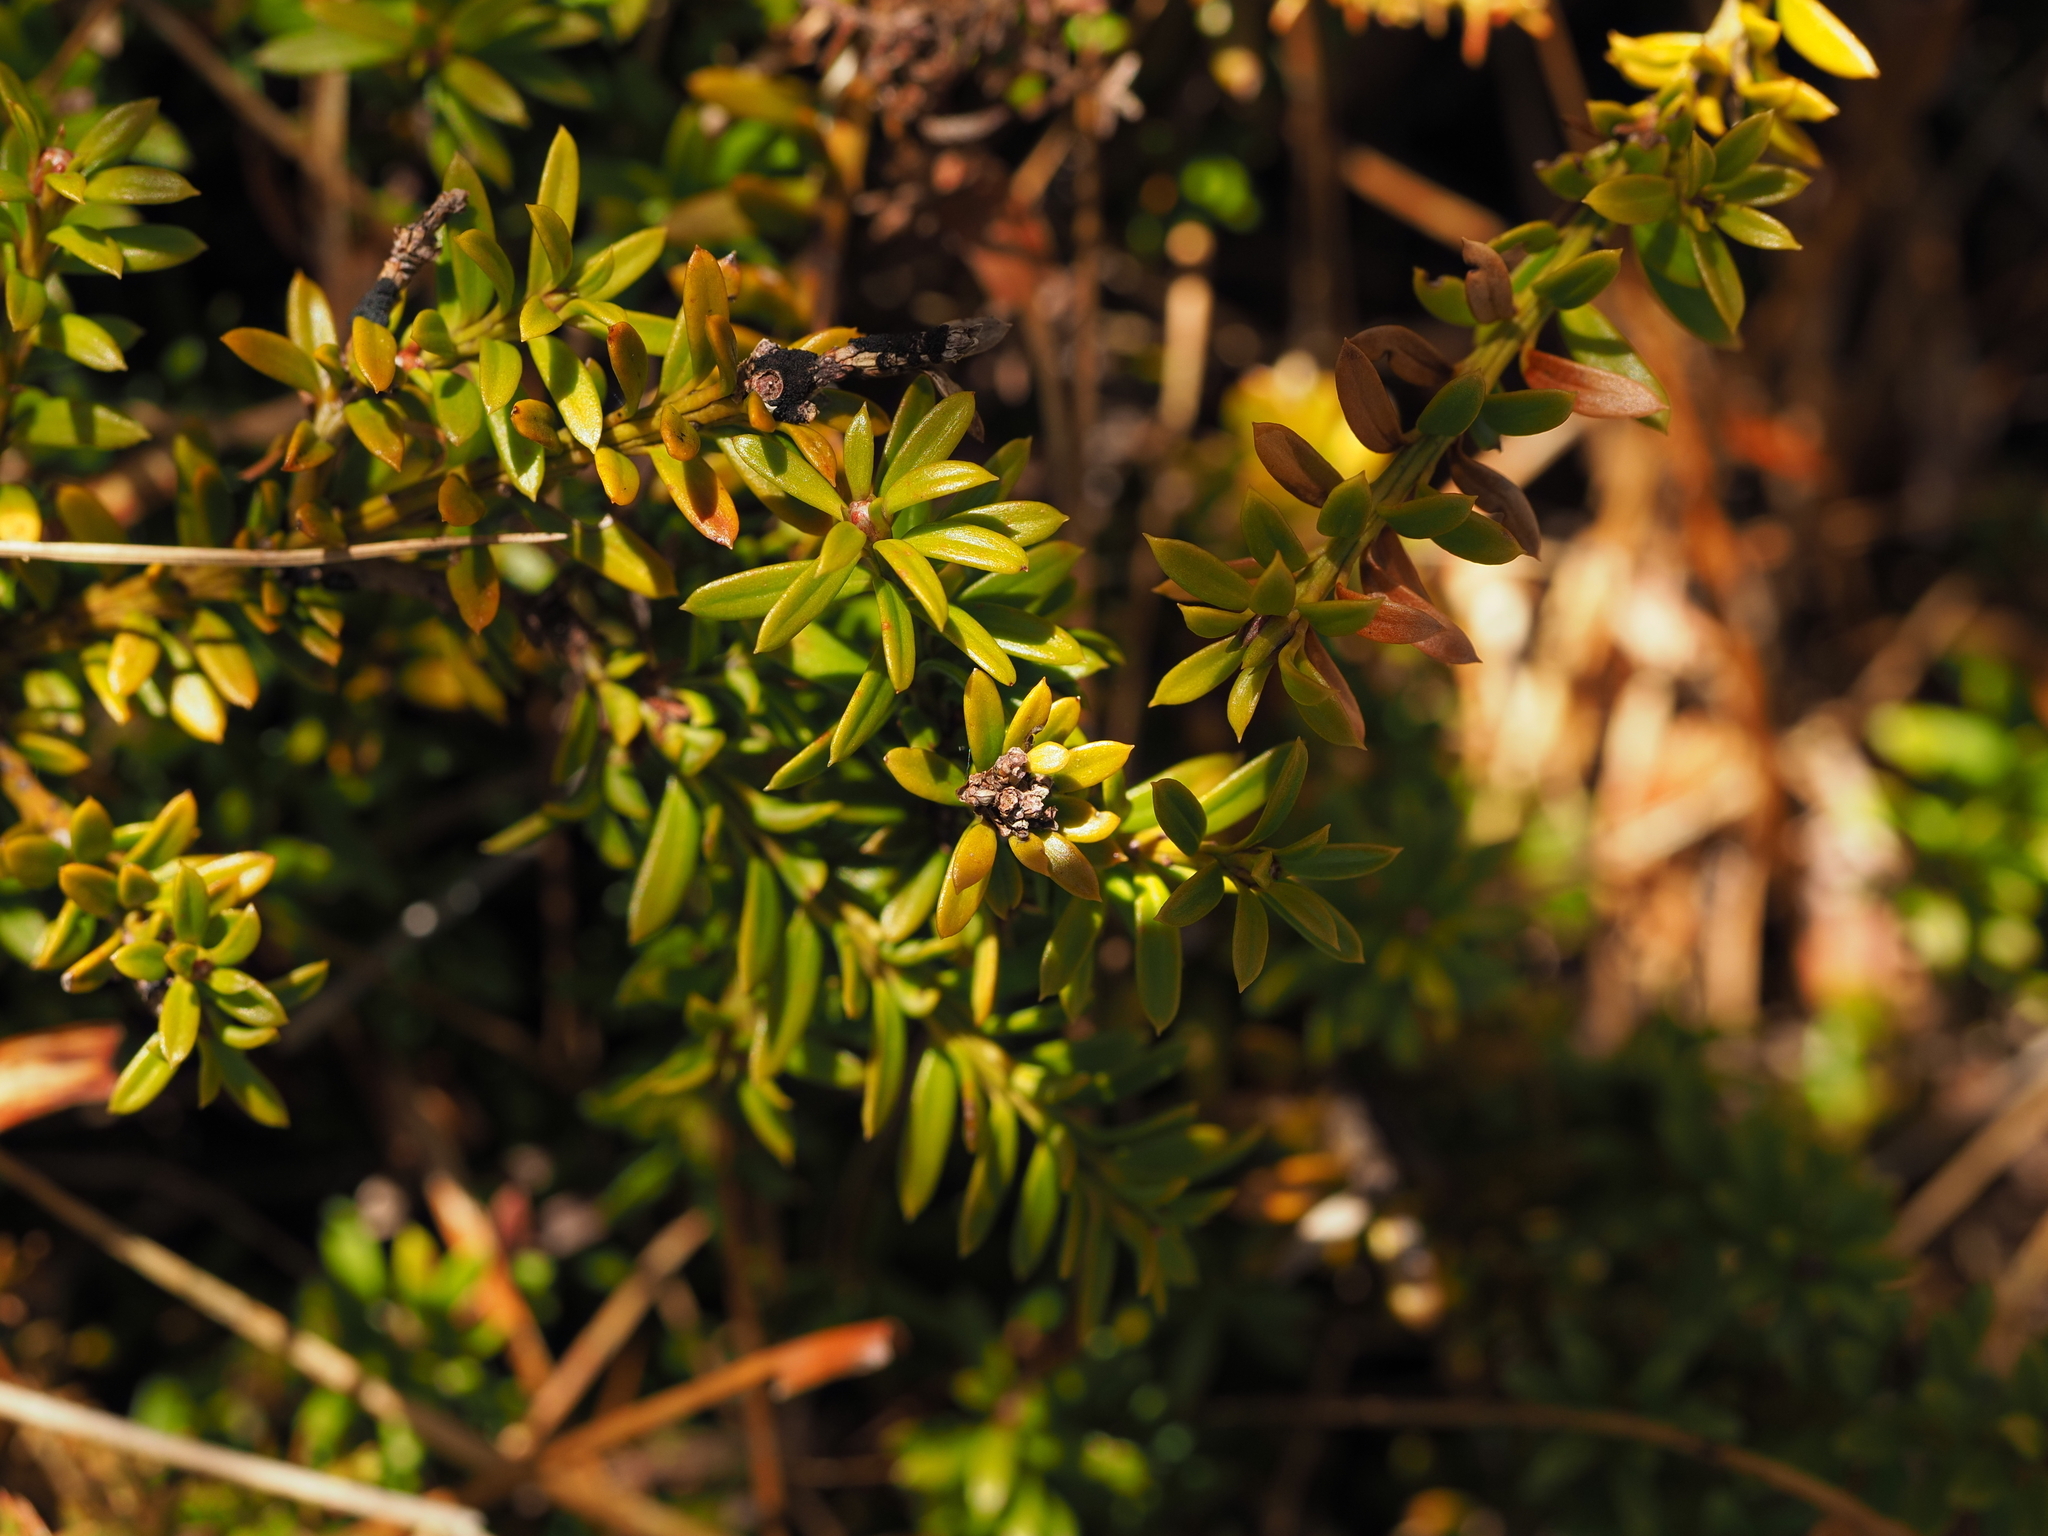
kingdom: Plantae
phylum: Tracheophyta
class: Pinopsida
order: Pinales
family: Podocarpaceae
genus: Podocarpus
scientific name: Podocarpus nivalis
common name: Alpine totara
